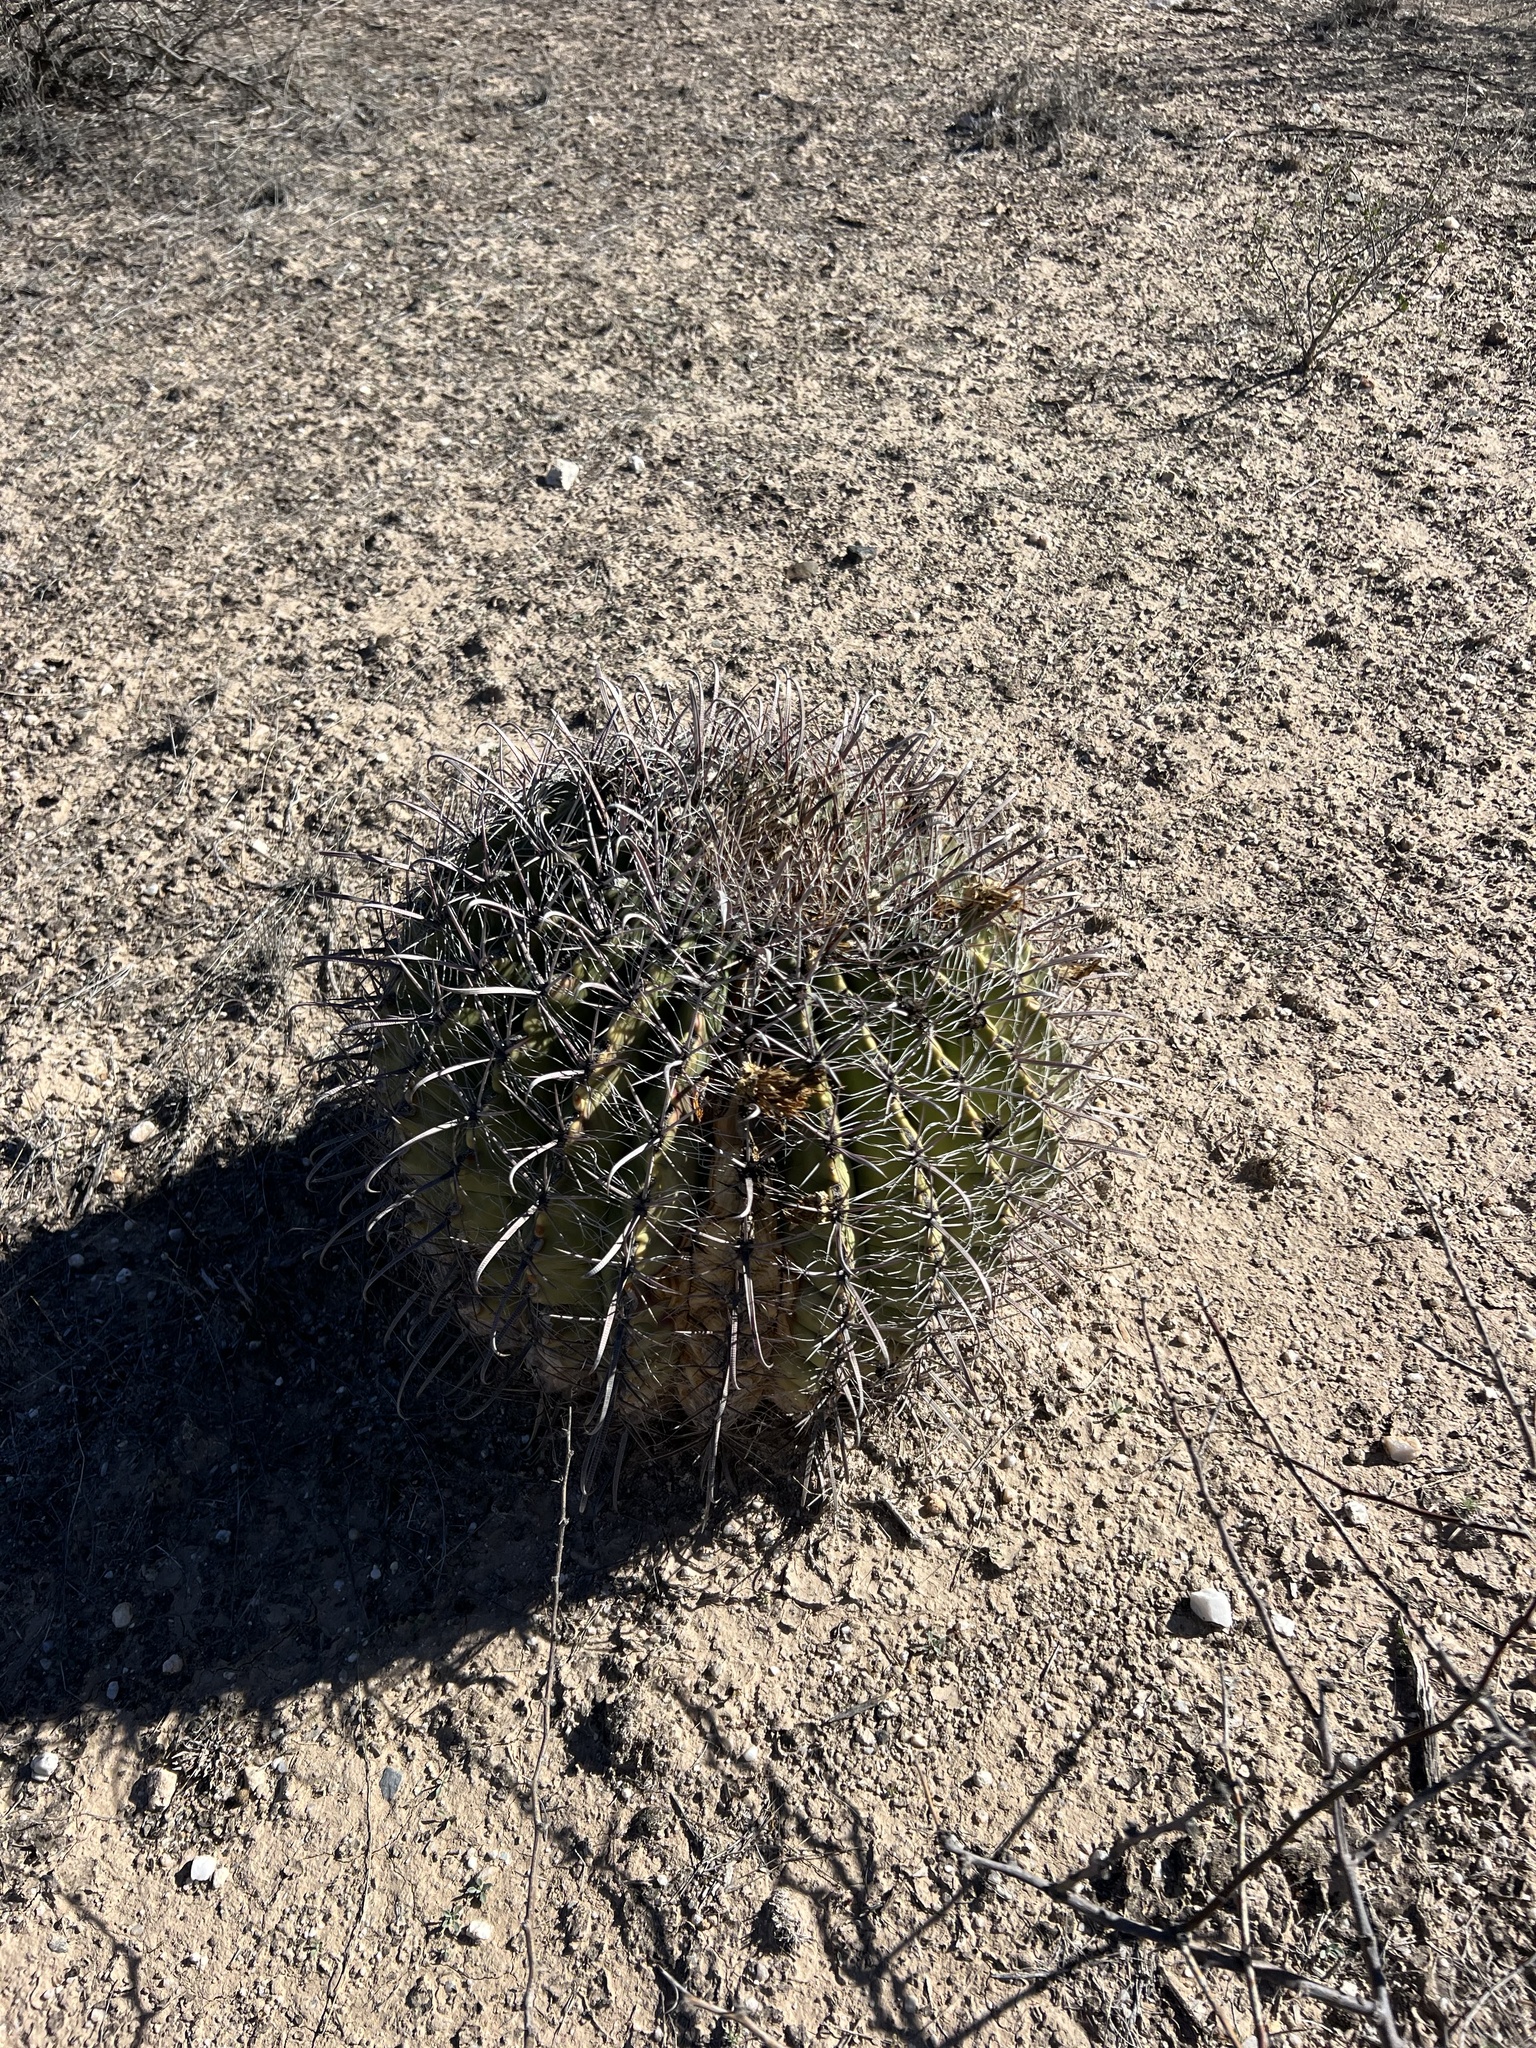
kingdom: Plantae
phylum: Tracheophyta
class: Magnoliopsida
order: Caryophyllales
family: Cactaceae
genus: Ferocactus
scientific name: Ferocactus wislizeni
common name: Candy barrel cactus
